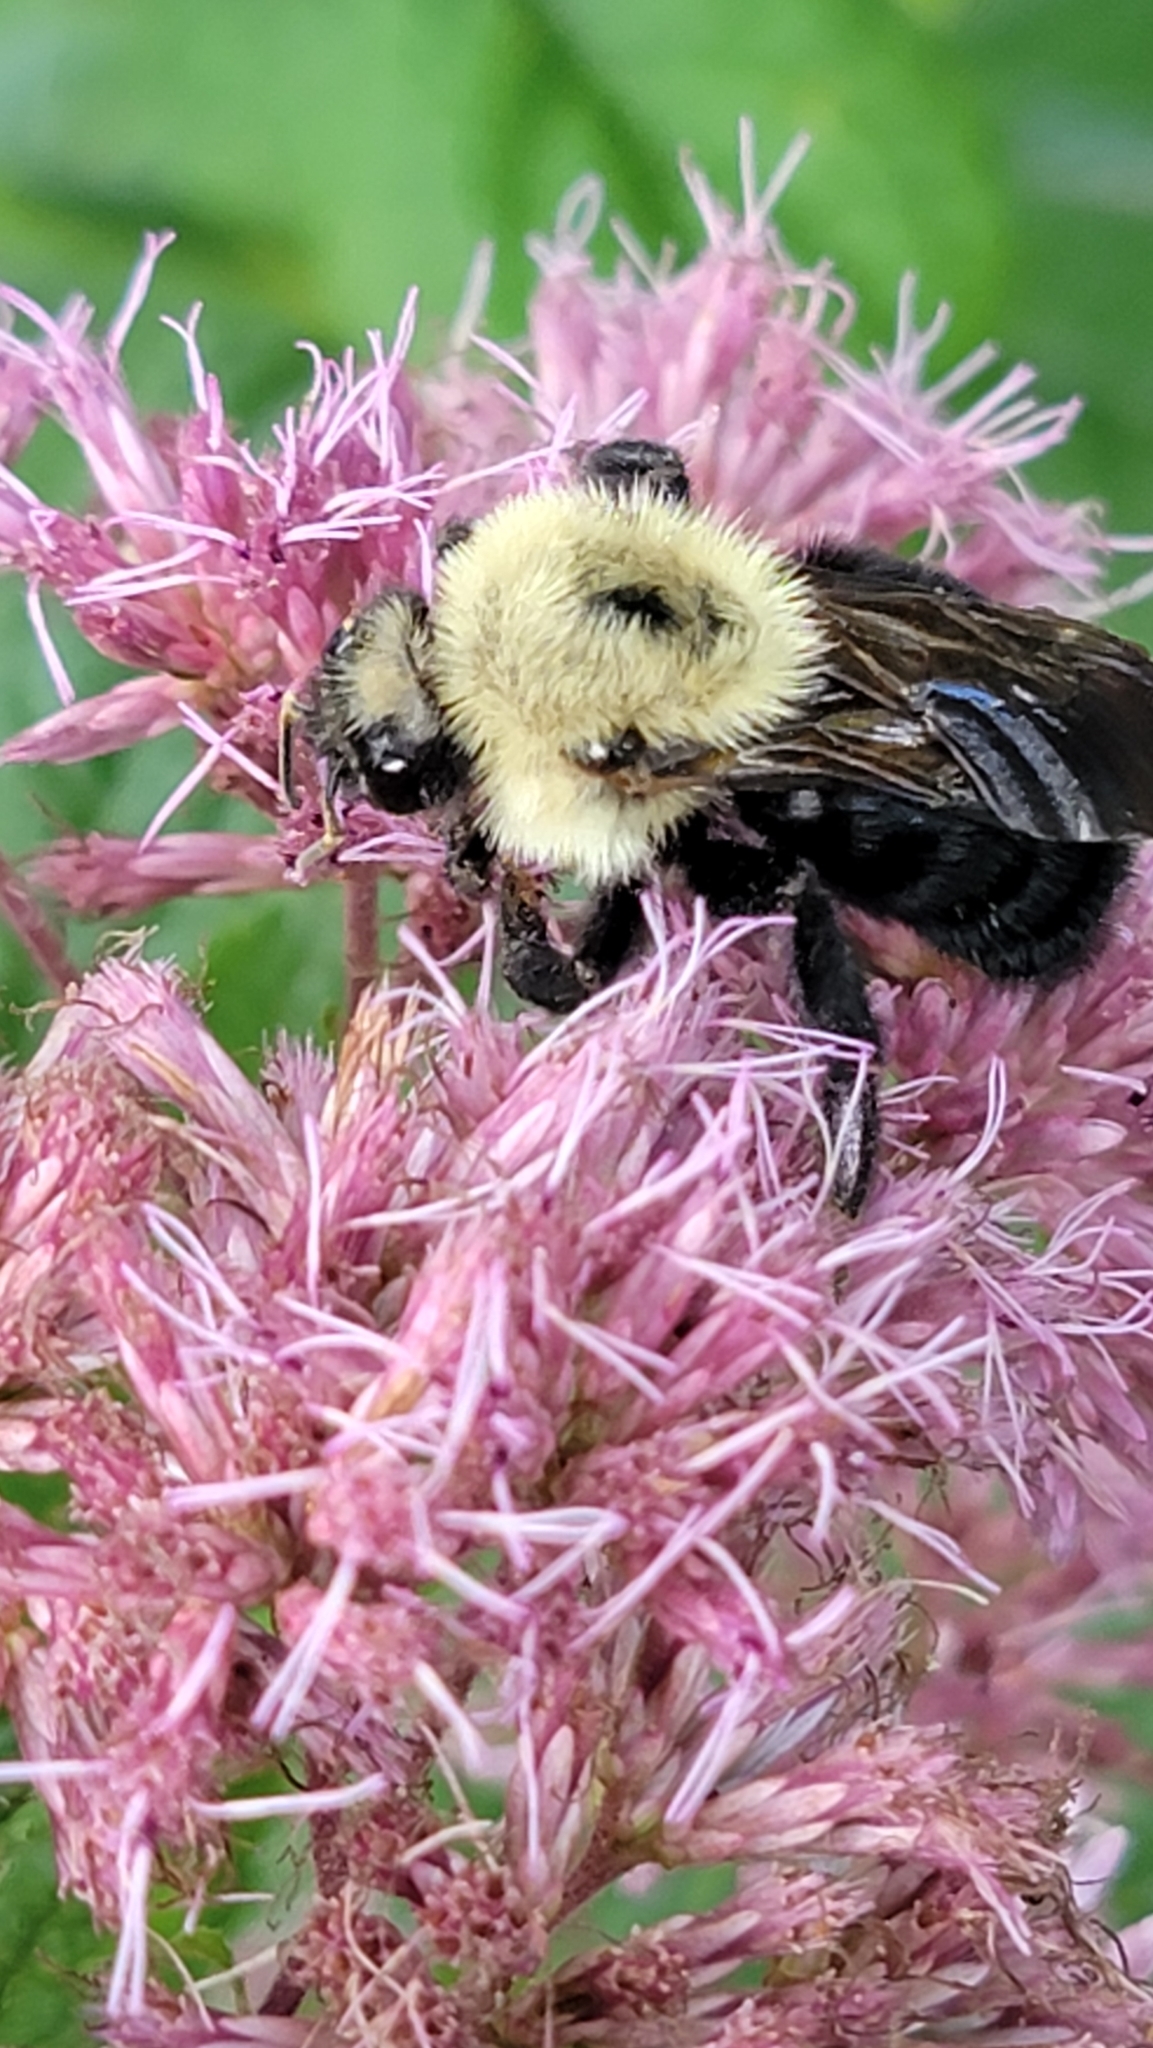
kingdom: Animalia
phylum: Arthropoda
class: Insecta
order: Hymenoptera
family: Apidae
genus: Bombus
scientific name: Bombus citrinus
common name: Lemon cuckoo bumble bee
